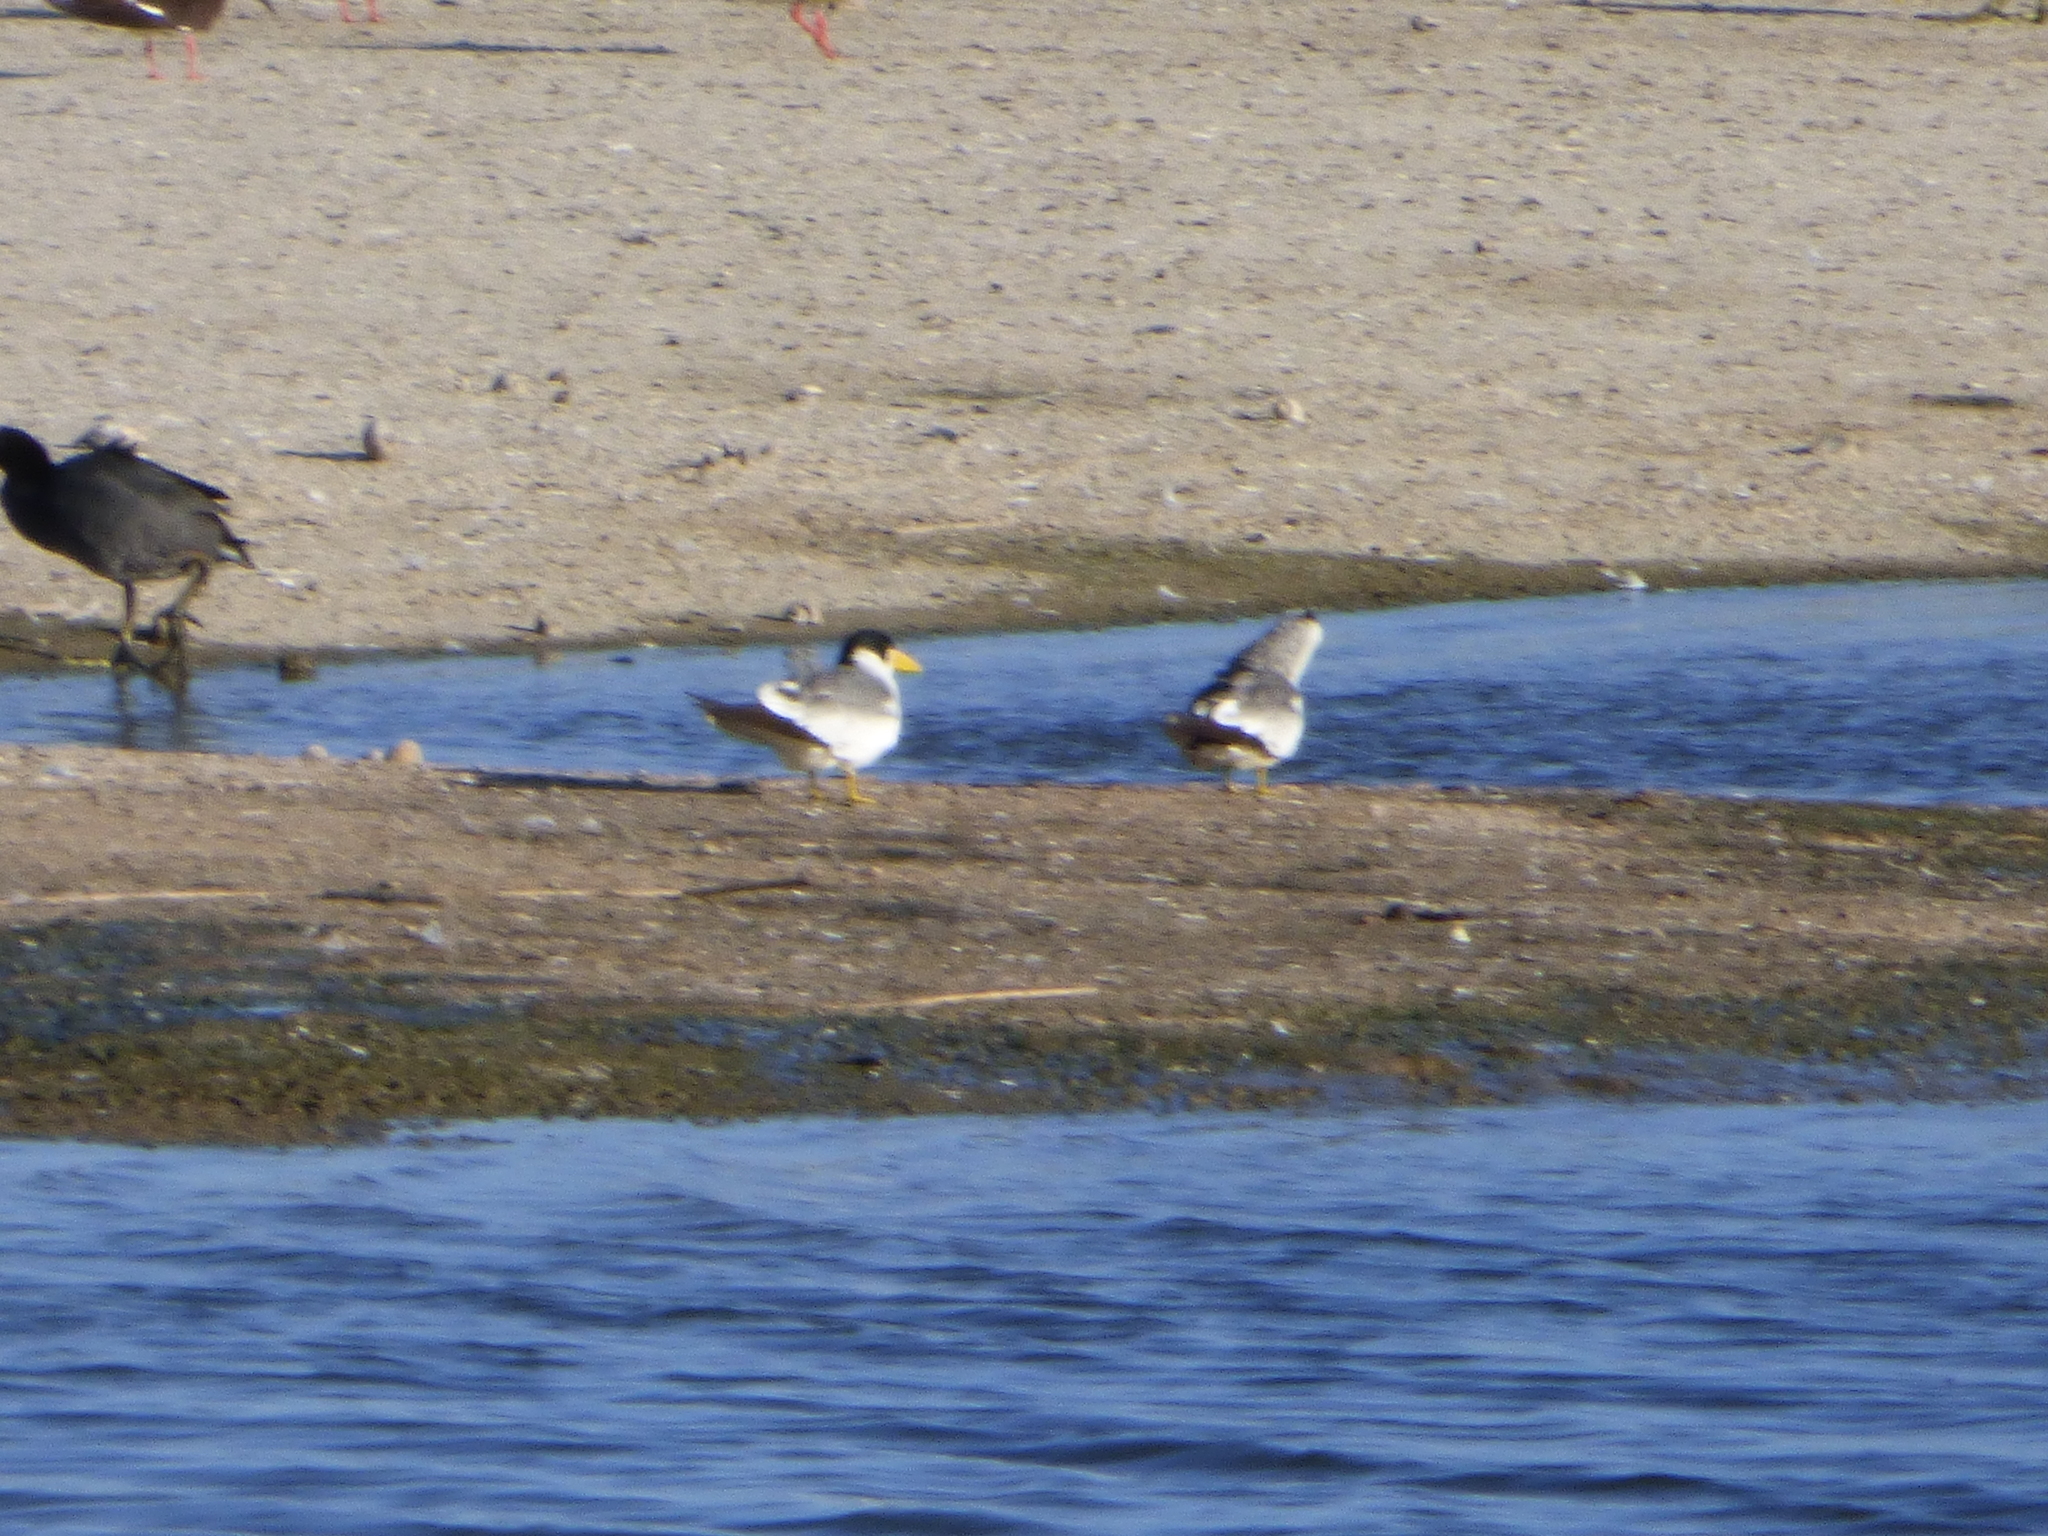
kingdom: Animalia
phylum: Chordata
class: Aves
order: Charadriiformes
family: Laridae
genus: Phaetusa
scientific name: Phaetusa simplex
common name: Large-billed tern
